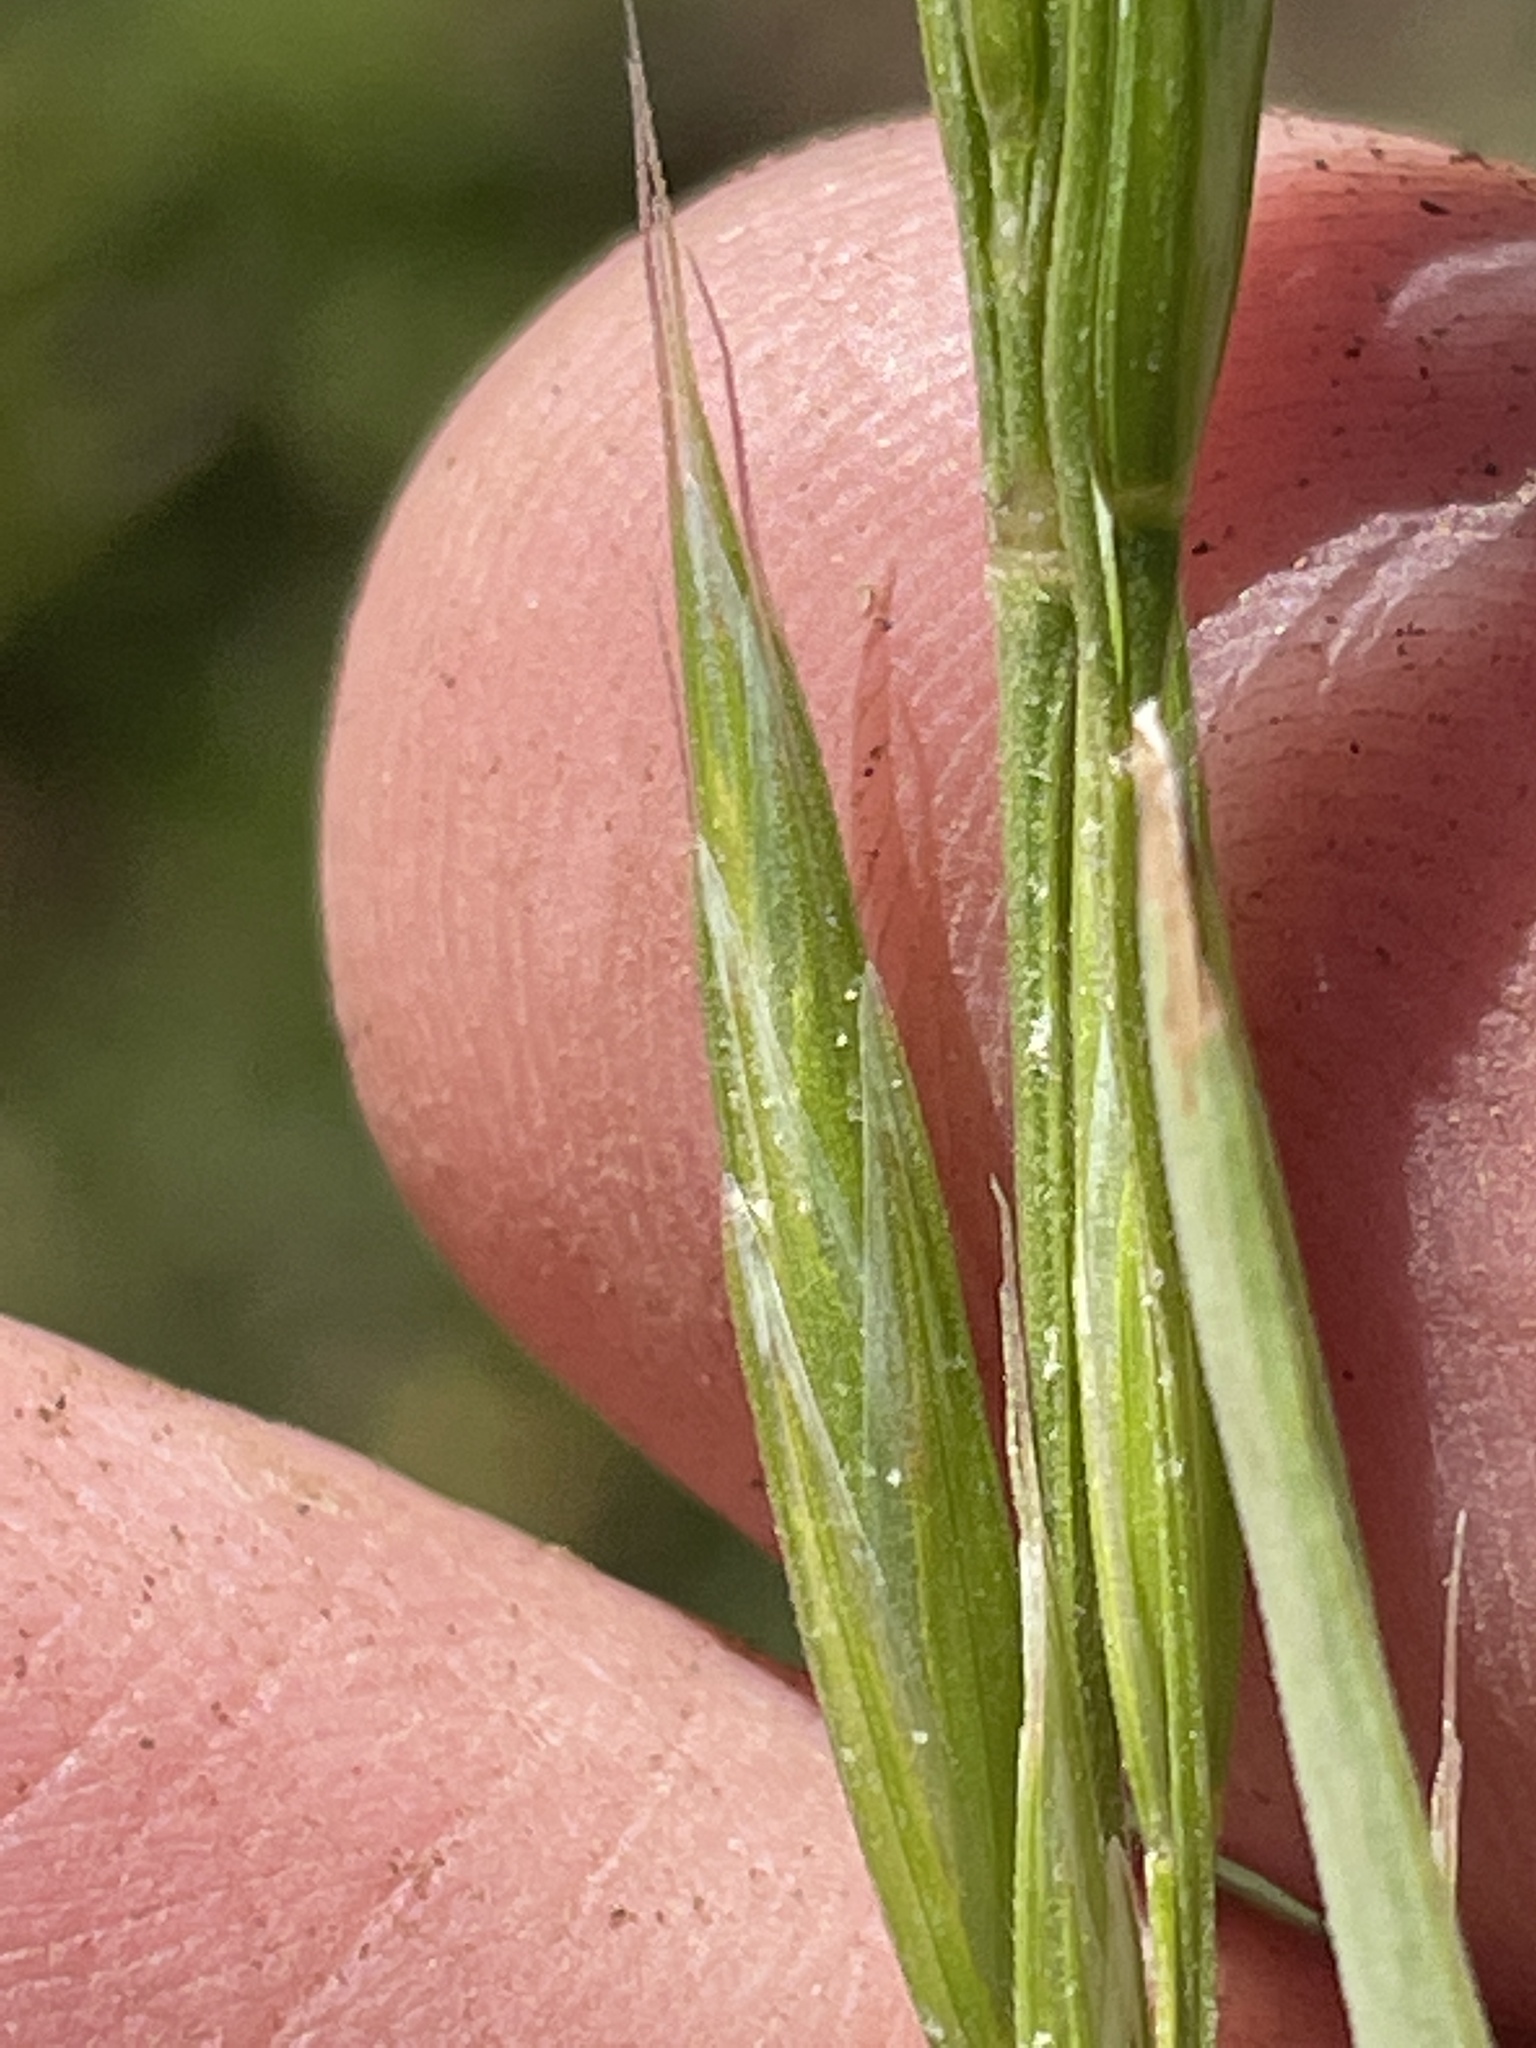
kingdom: Plantae
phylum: Tracheophyta
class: Liliopsida
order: Poales
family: Poaceae
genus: Bromus
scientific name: Bromus marginatus
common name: Western brome
